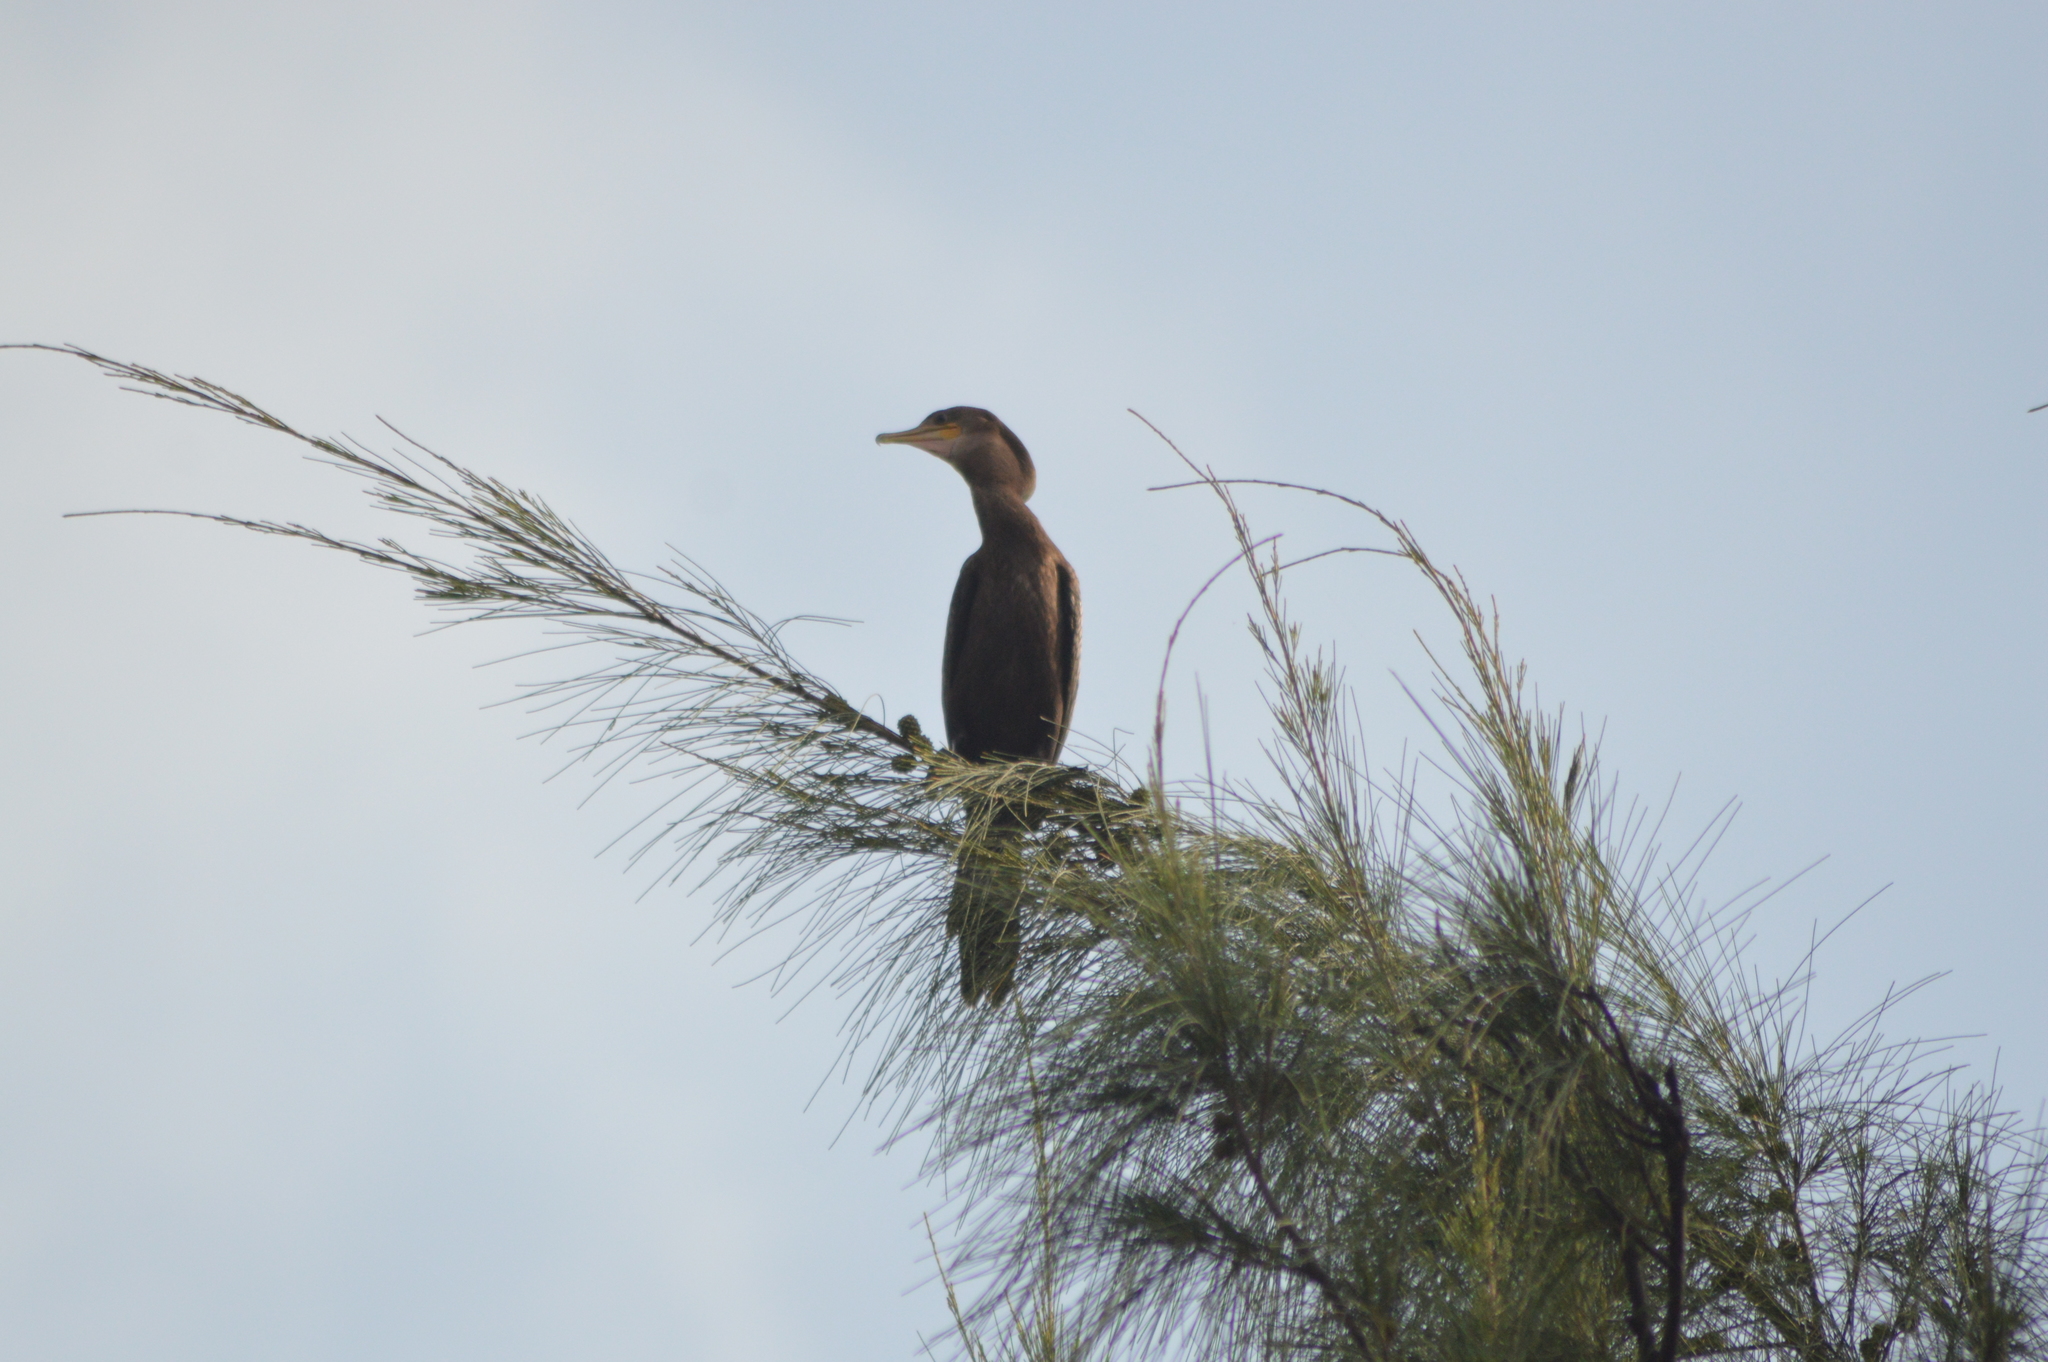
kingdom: Animalia
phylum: Chordata
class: Aves
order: Suliformes
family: Phalacrocoracidae
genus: Phalacrocorax
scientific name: Phalacrocorax brasilianus
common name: Neotropic cormorant
